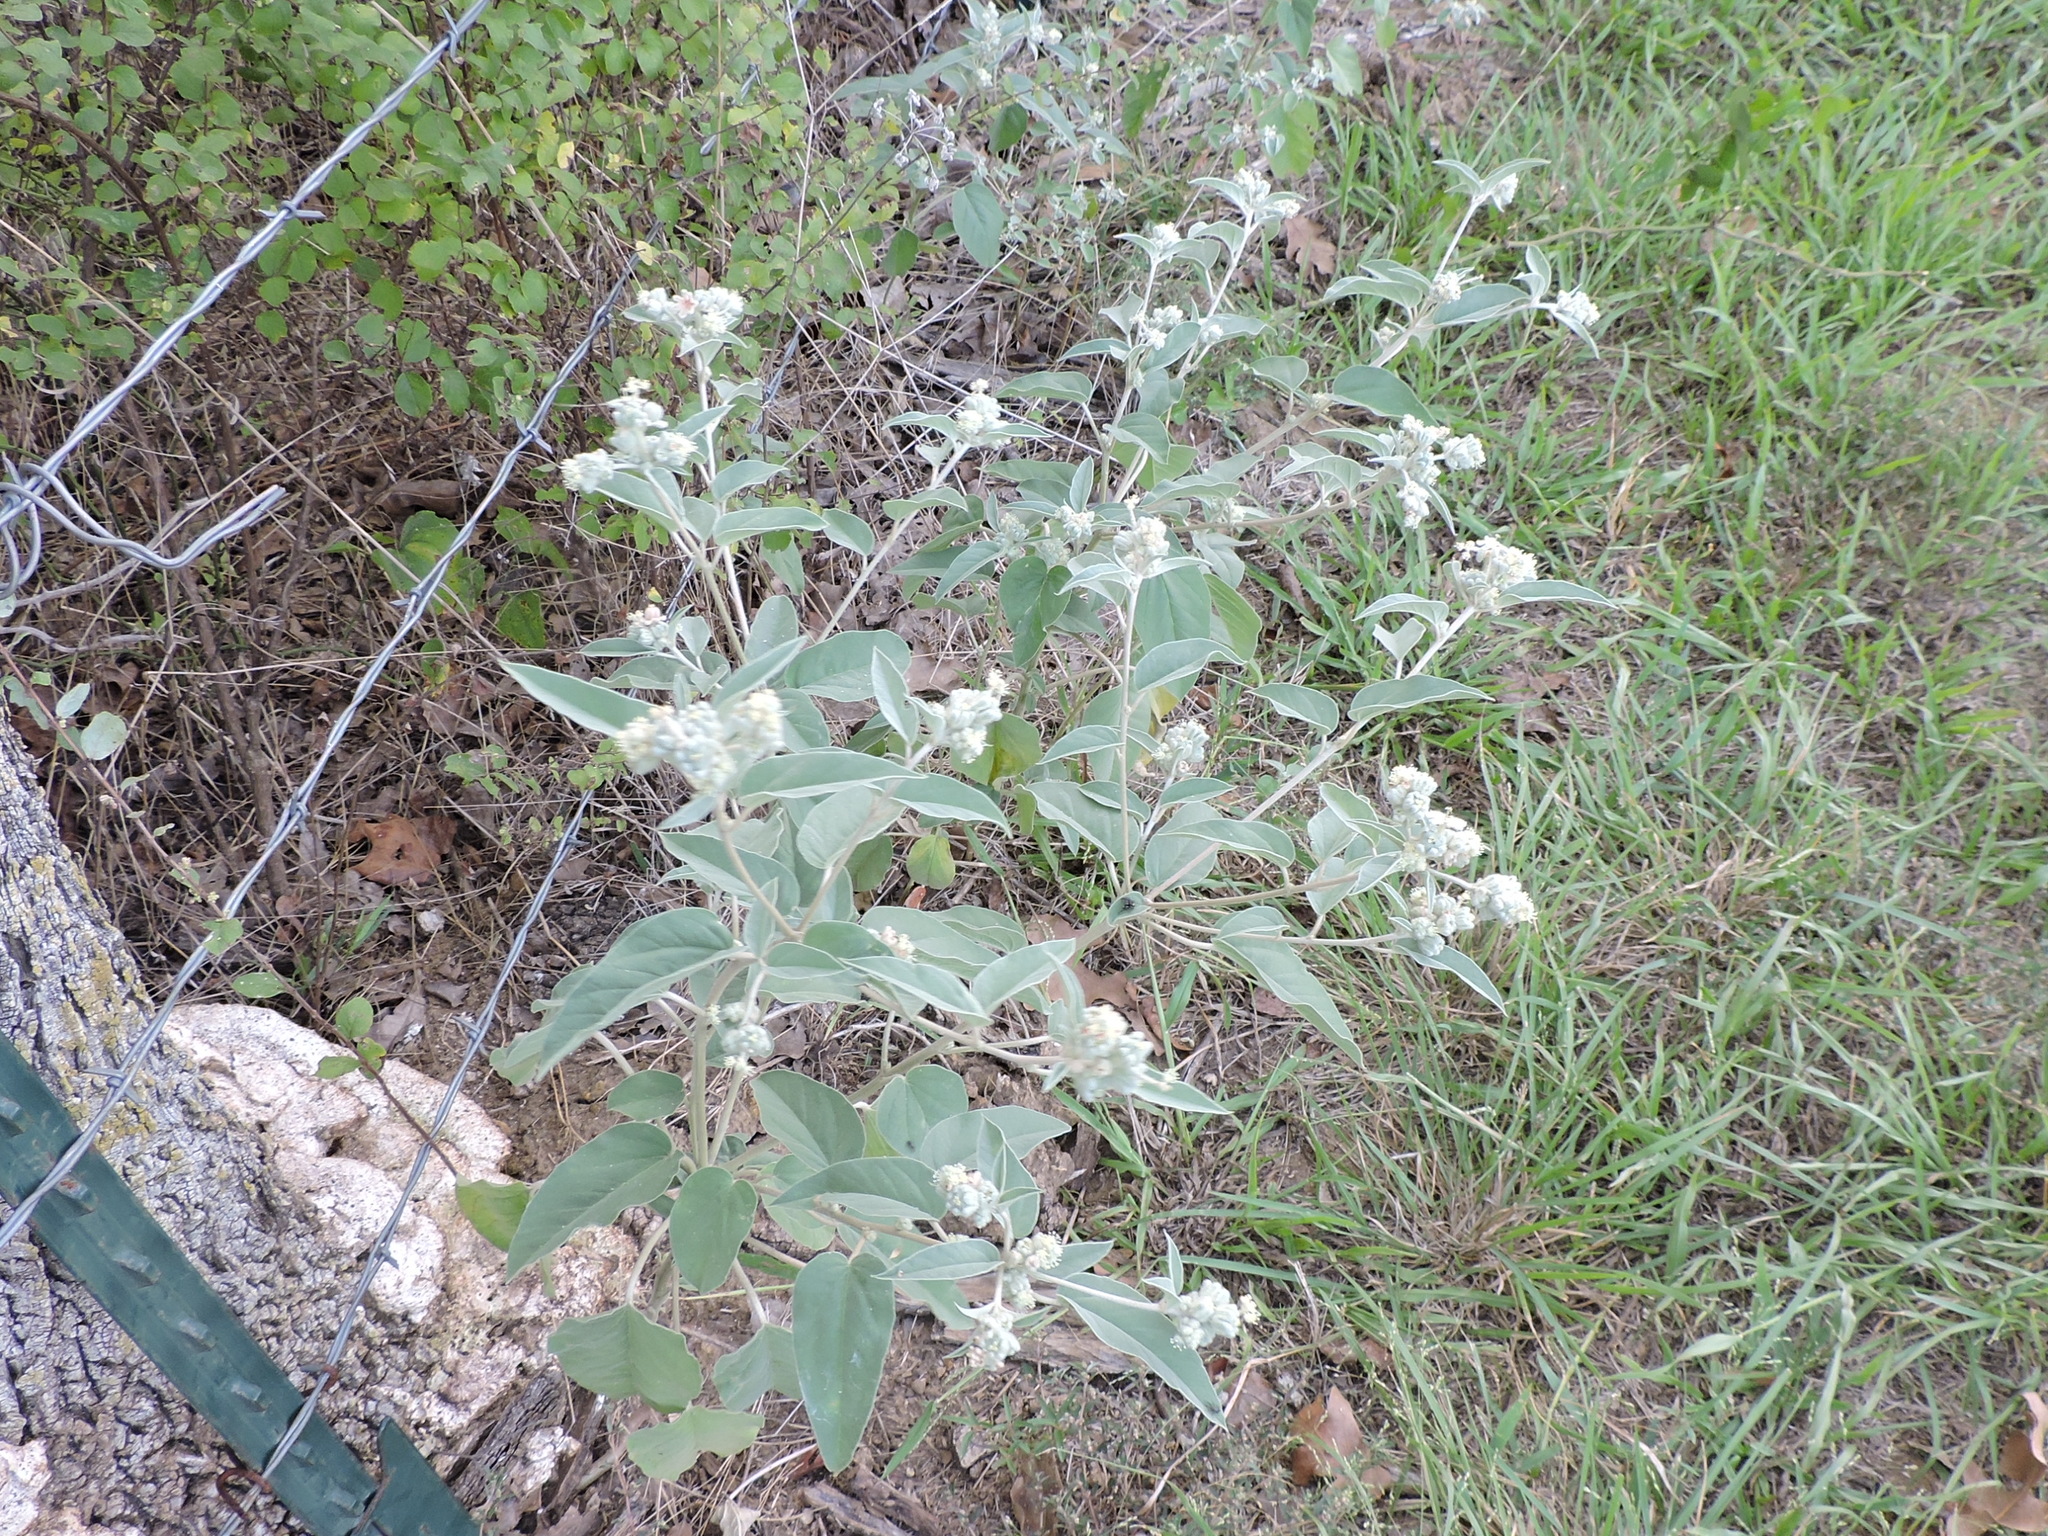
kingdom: Plantae
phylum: Tracheophyta
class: Magnoliopsida
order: Malpighiales
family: Euphorbiaceae
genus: Croton
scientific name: Croton lindheimeri
